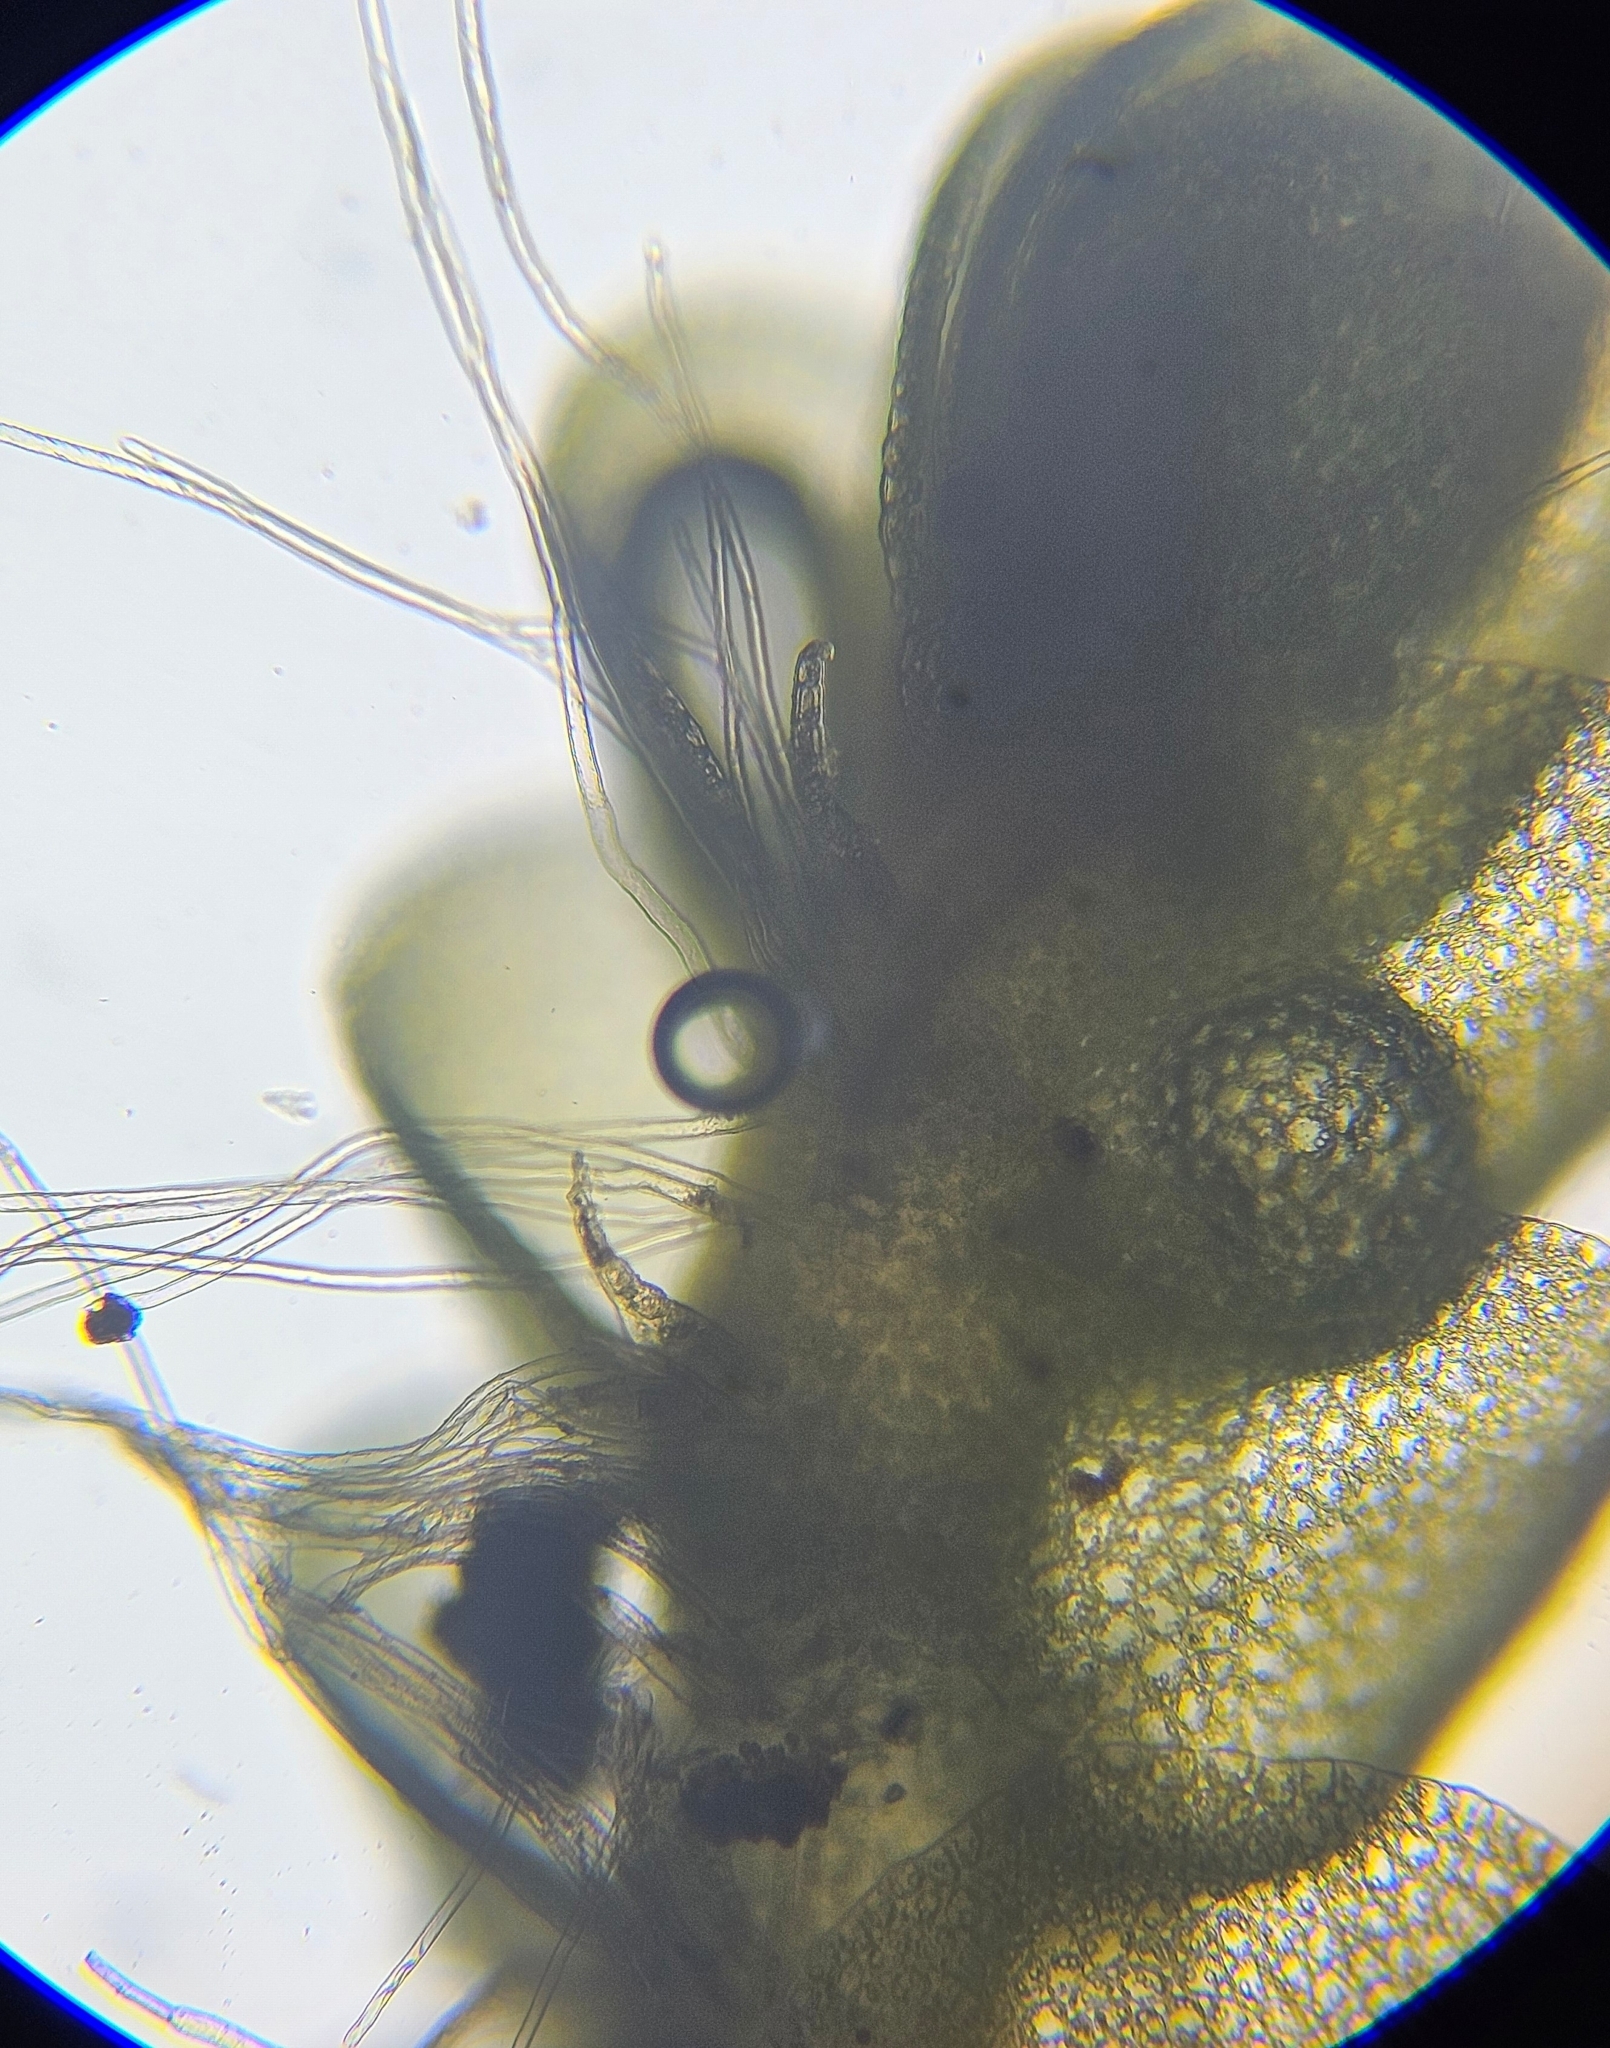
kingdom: Plantae
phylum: Marchantiophyta
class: Jungermanniopsida
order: Jungermanniales
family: Gymnomitriaceae
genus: Nardia
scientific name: Nardia scalaris
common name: Ladder flapwort
